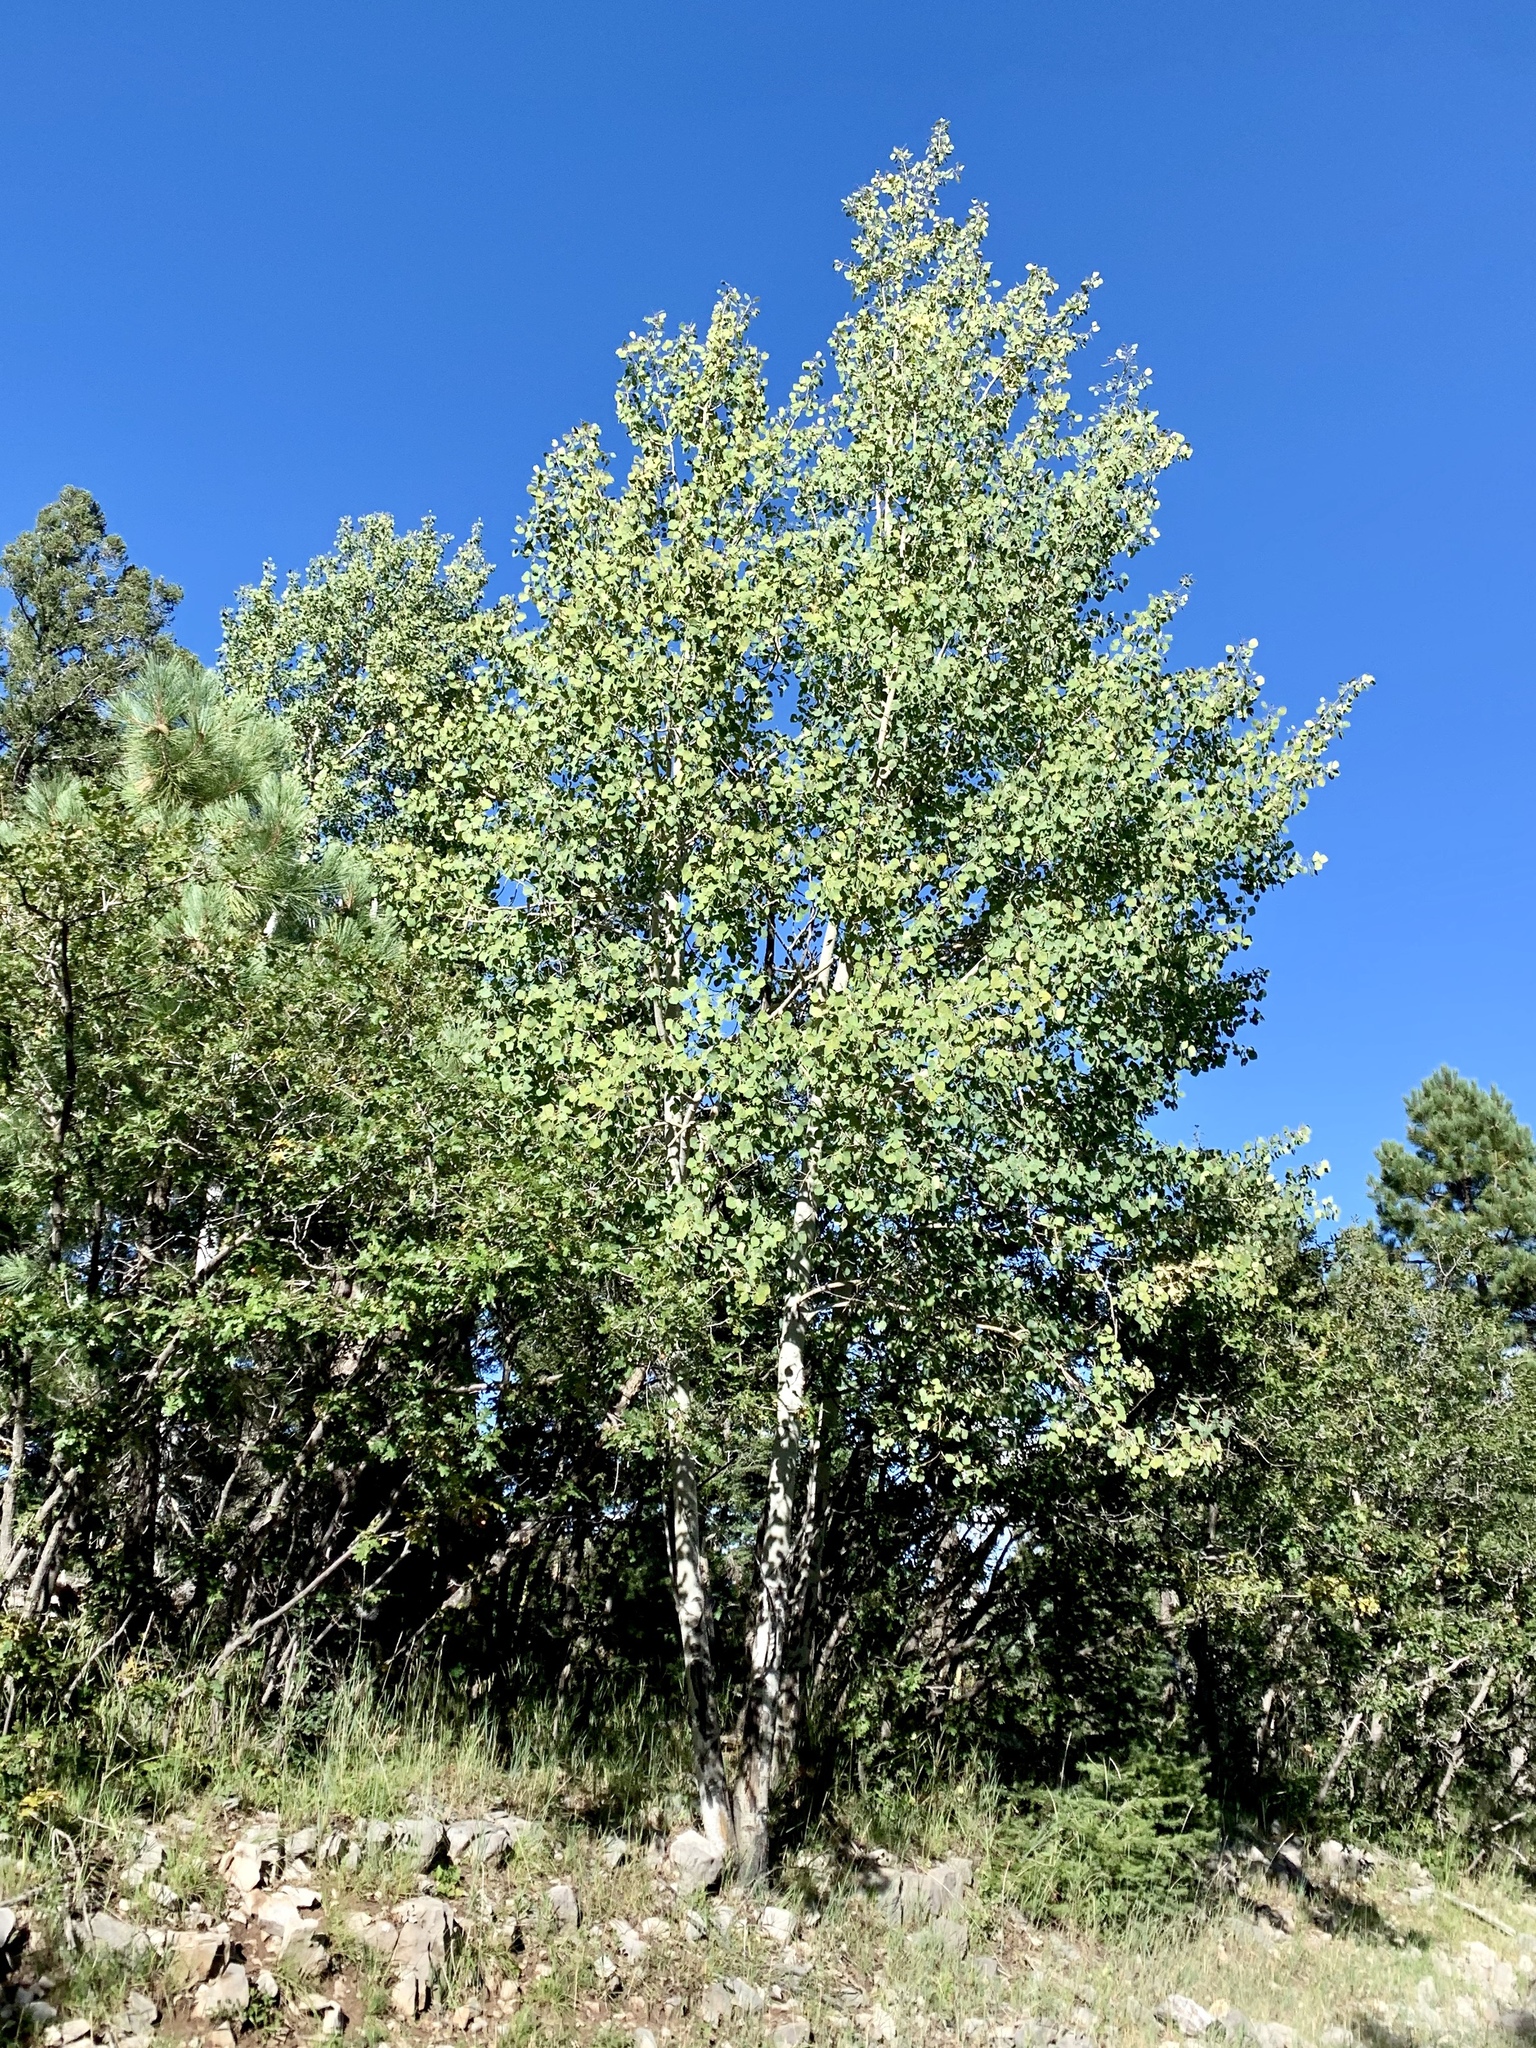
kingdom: Plantae
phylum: Tracheophyta
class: Magnoliopsida
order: Malpighiales
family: Salicaceae
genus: Populus
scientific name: Populus tremuloides
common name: Quaking aspen
